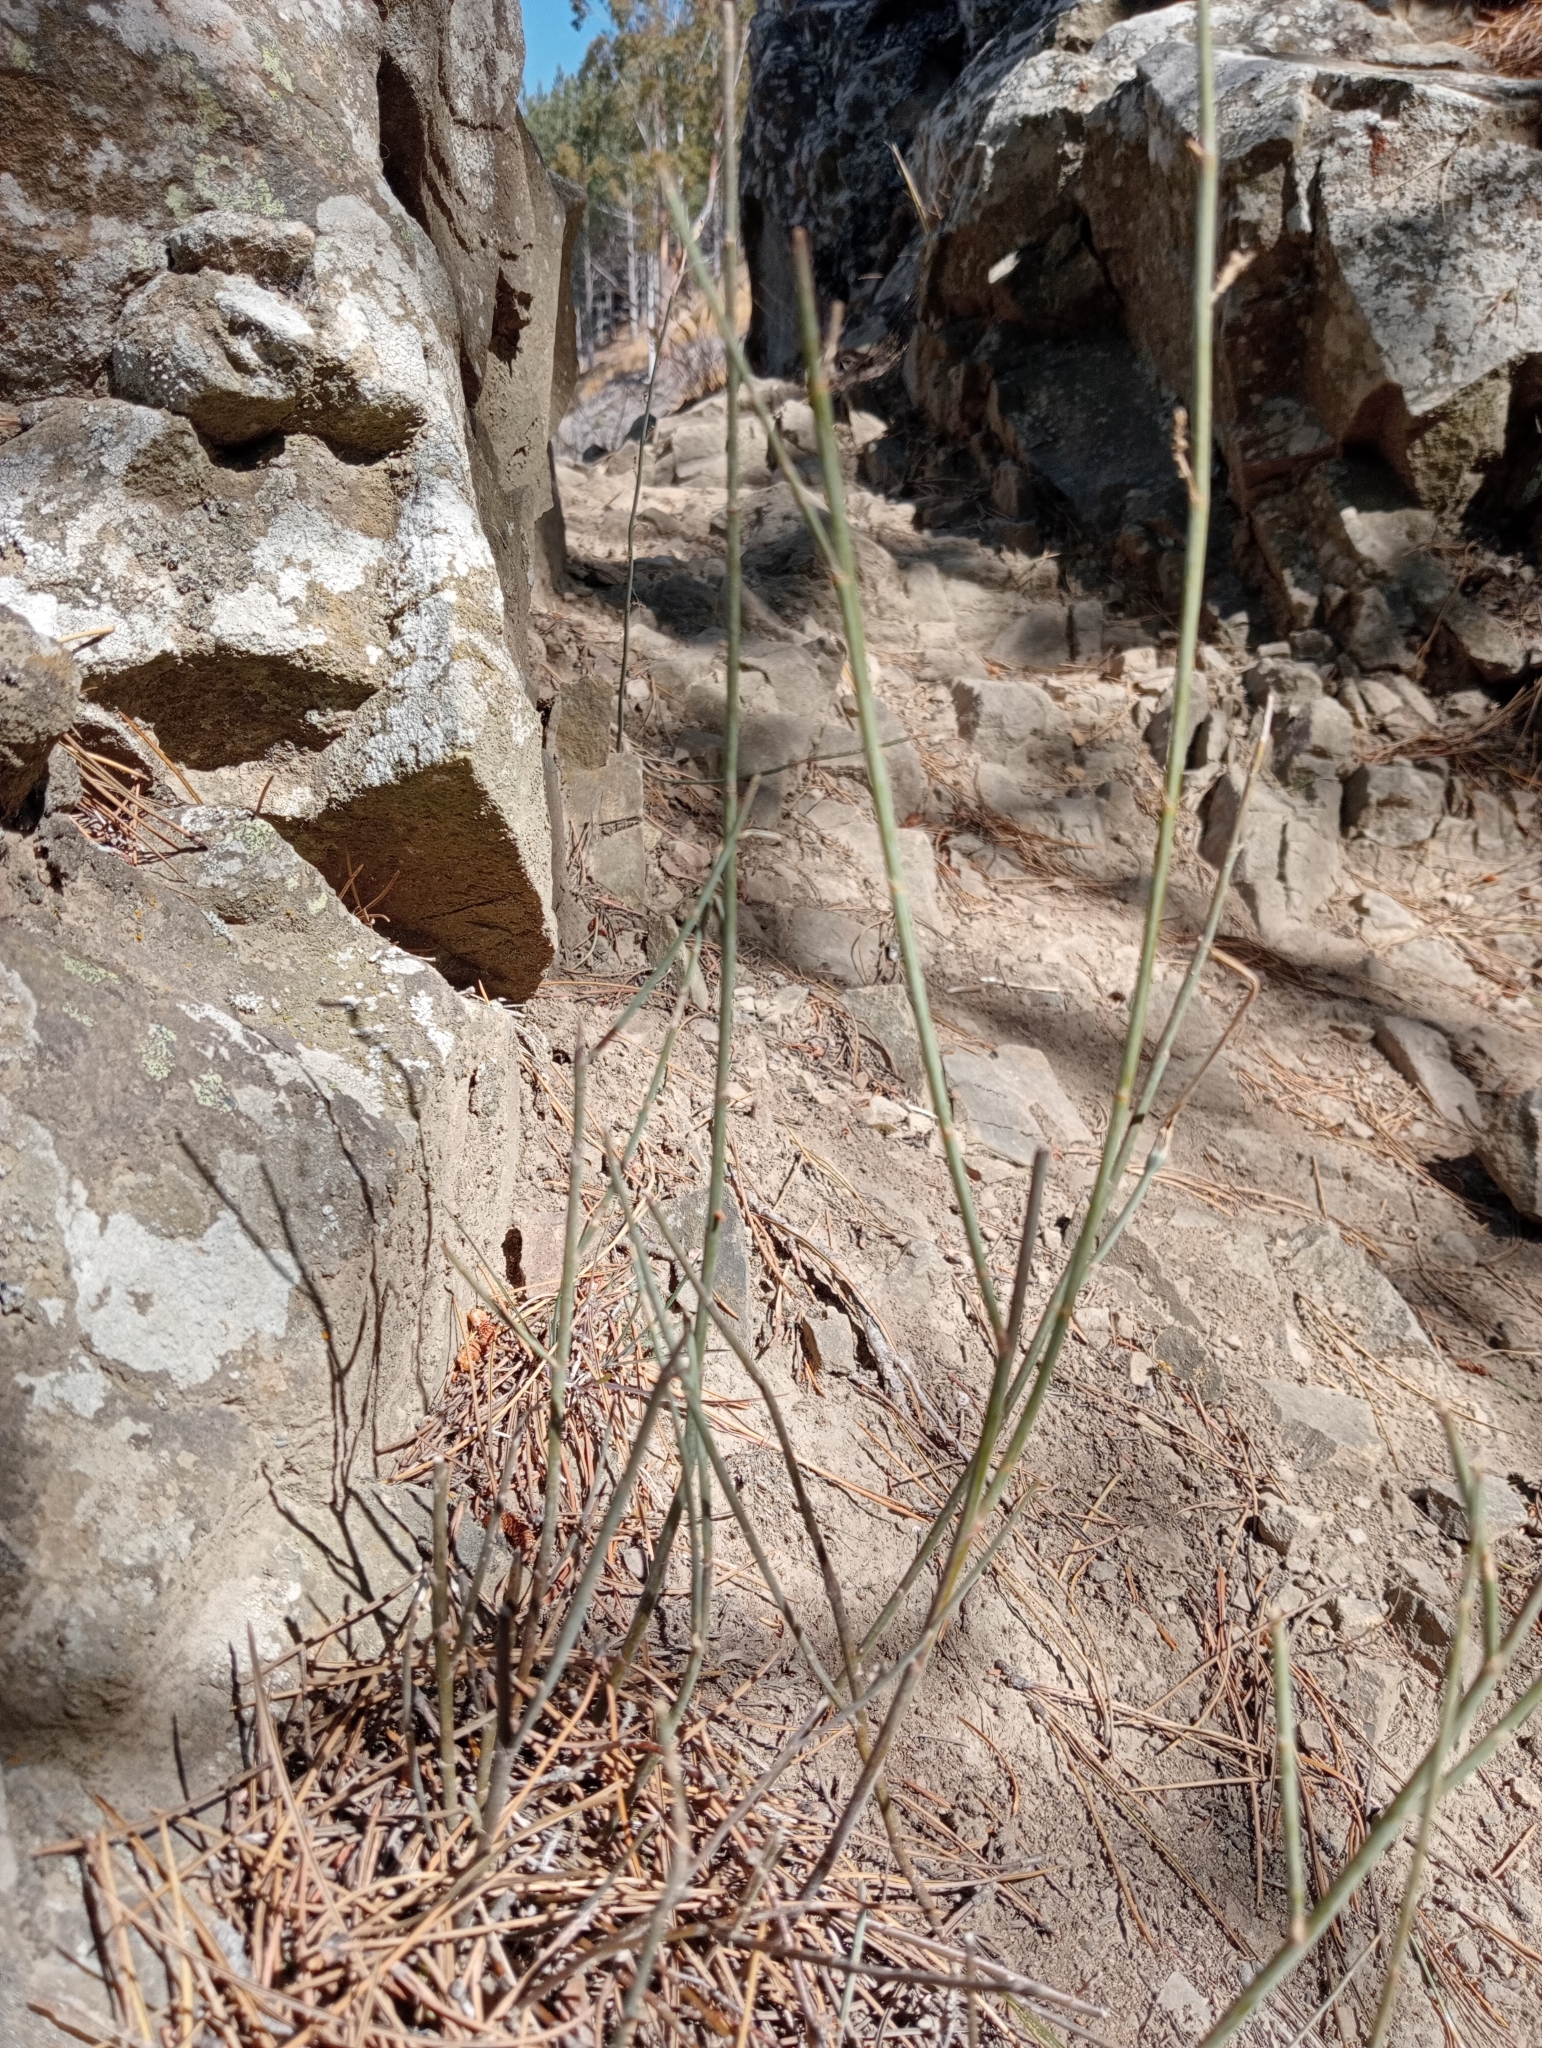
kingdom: Plantae
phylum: Tracheophyta
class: Magnoliopsida
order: Fabales
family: Fabaceae
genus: Carmichaelia
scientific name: Carmichaelia curta
